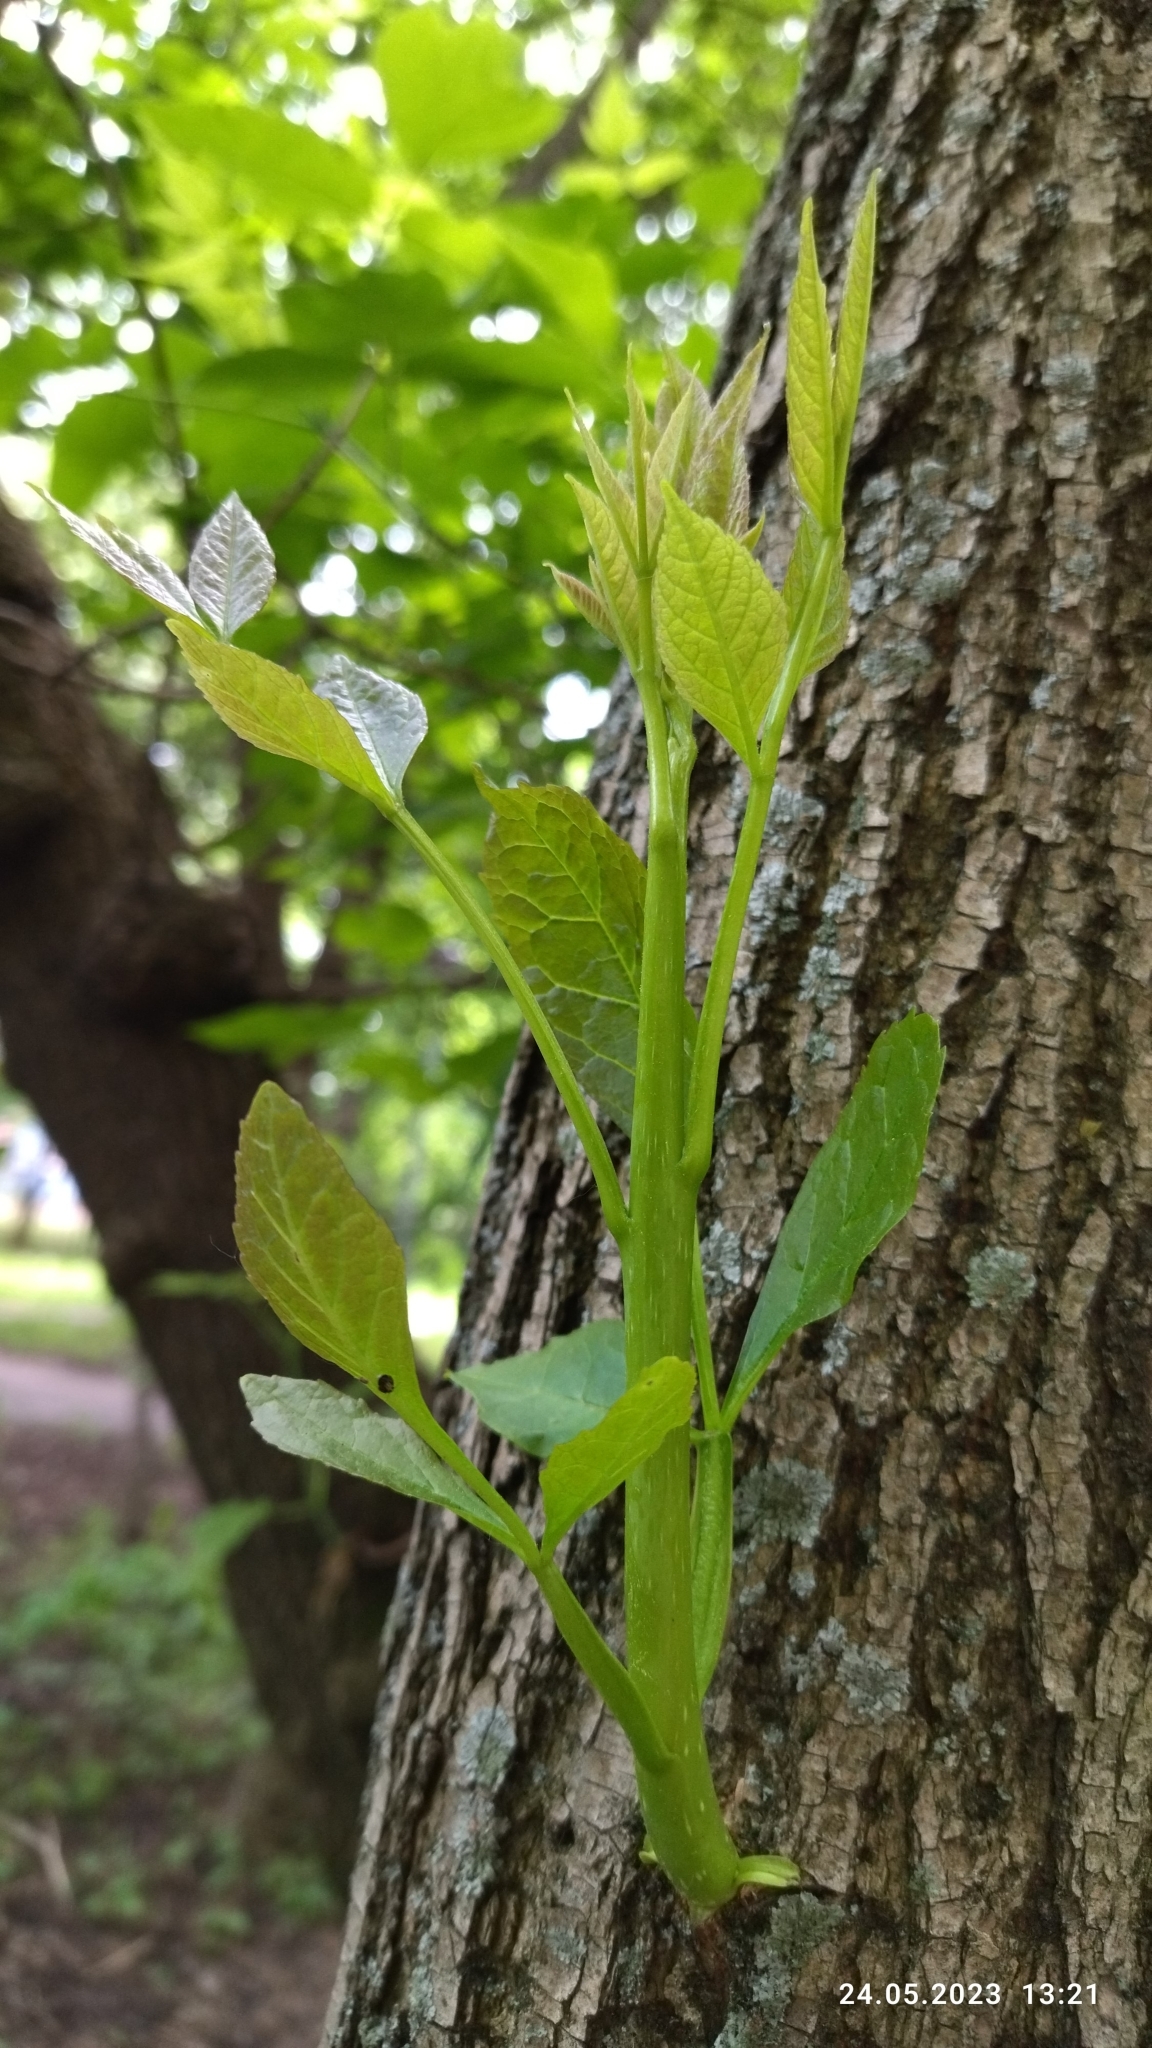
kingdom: Plantae
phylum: Tracheophyta
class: Magnoliopsida
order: Lamiales
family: Oleaceae
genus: Fraxinus
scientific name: Fraxinus pennsylvanica
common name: Green ash
